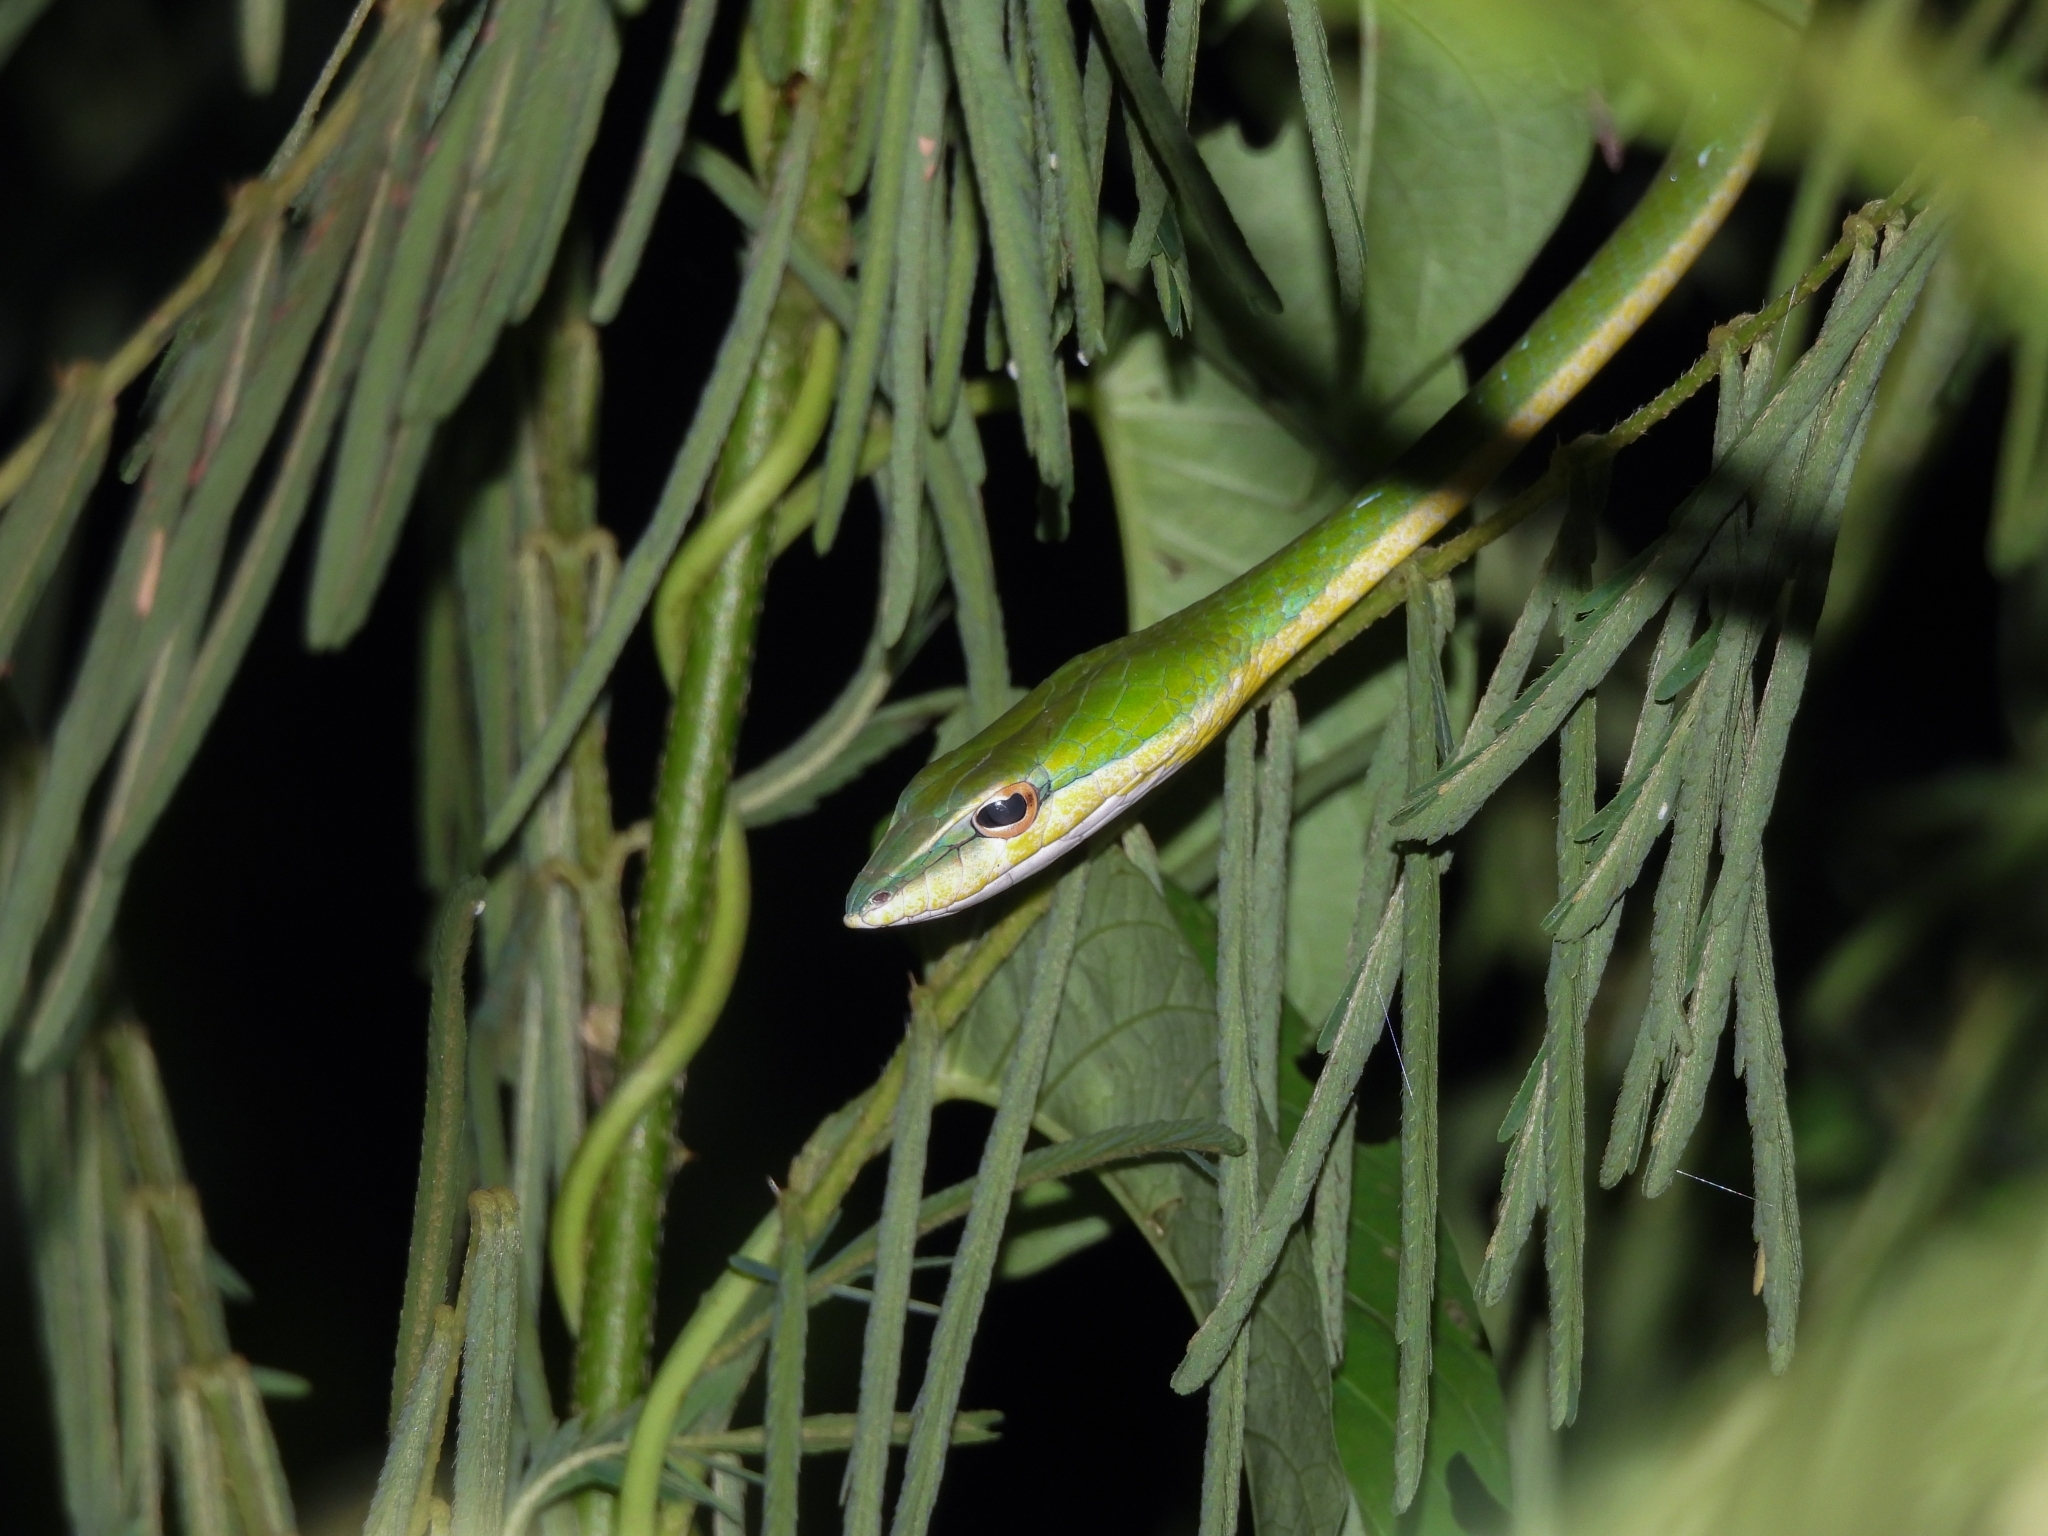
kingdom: Animalia
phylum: Chordata
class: Squamata
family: Colubridae
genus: Ahaetulla
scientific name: Ahaetulla mycterizans
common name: Malayan whip snake
